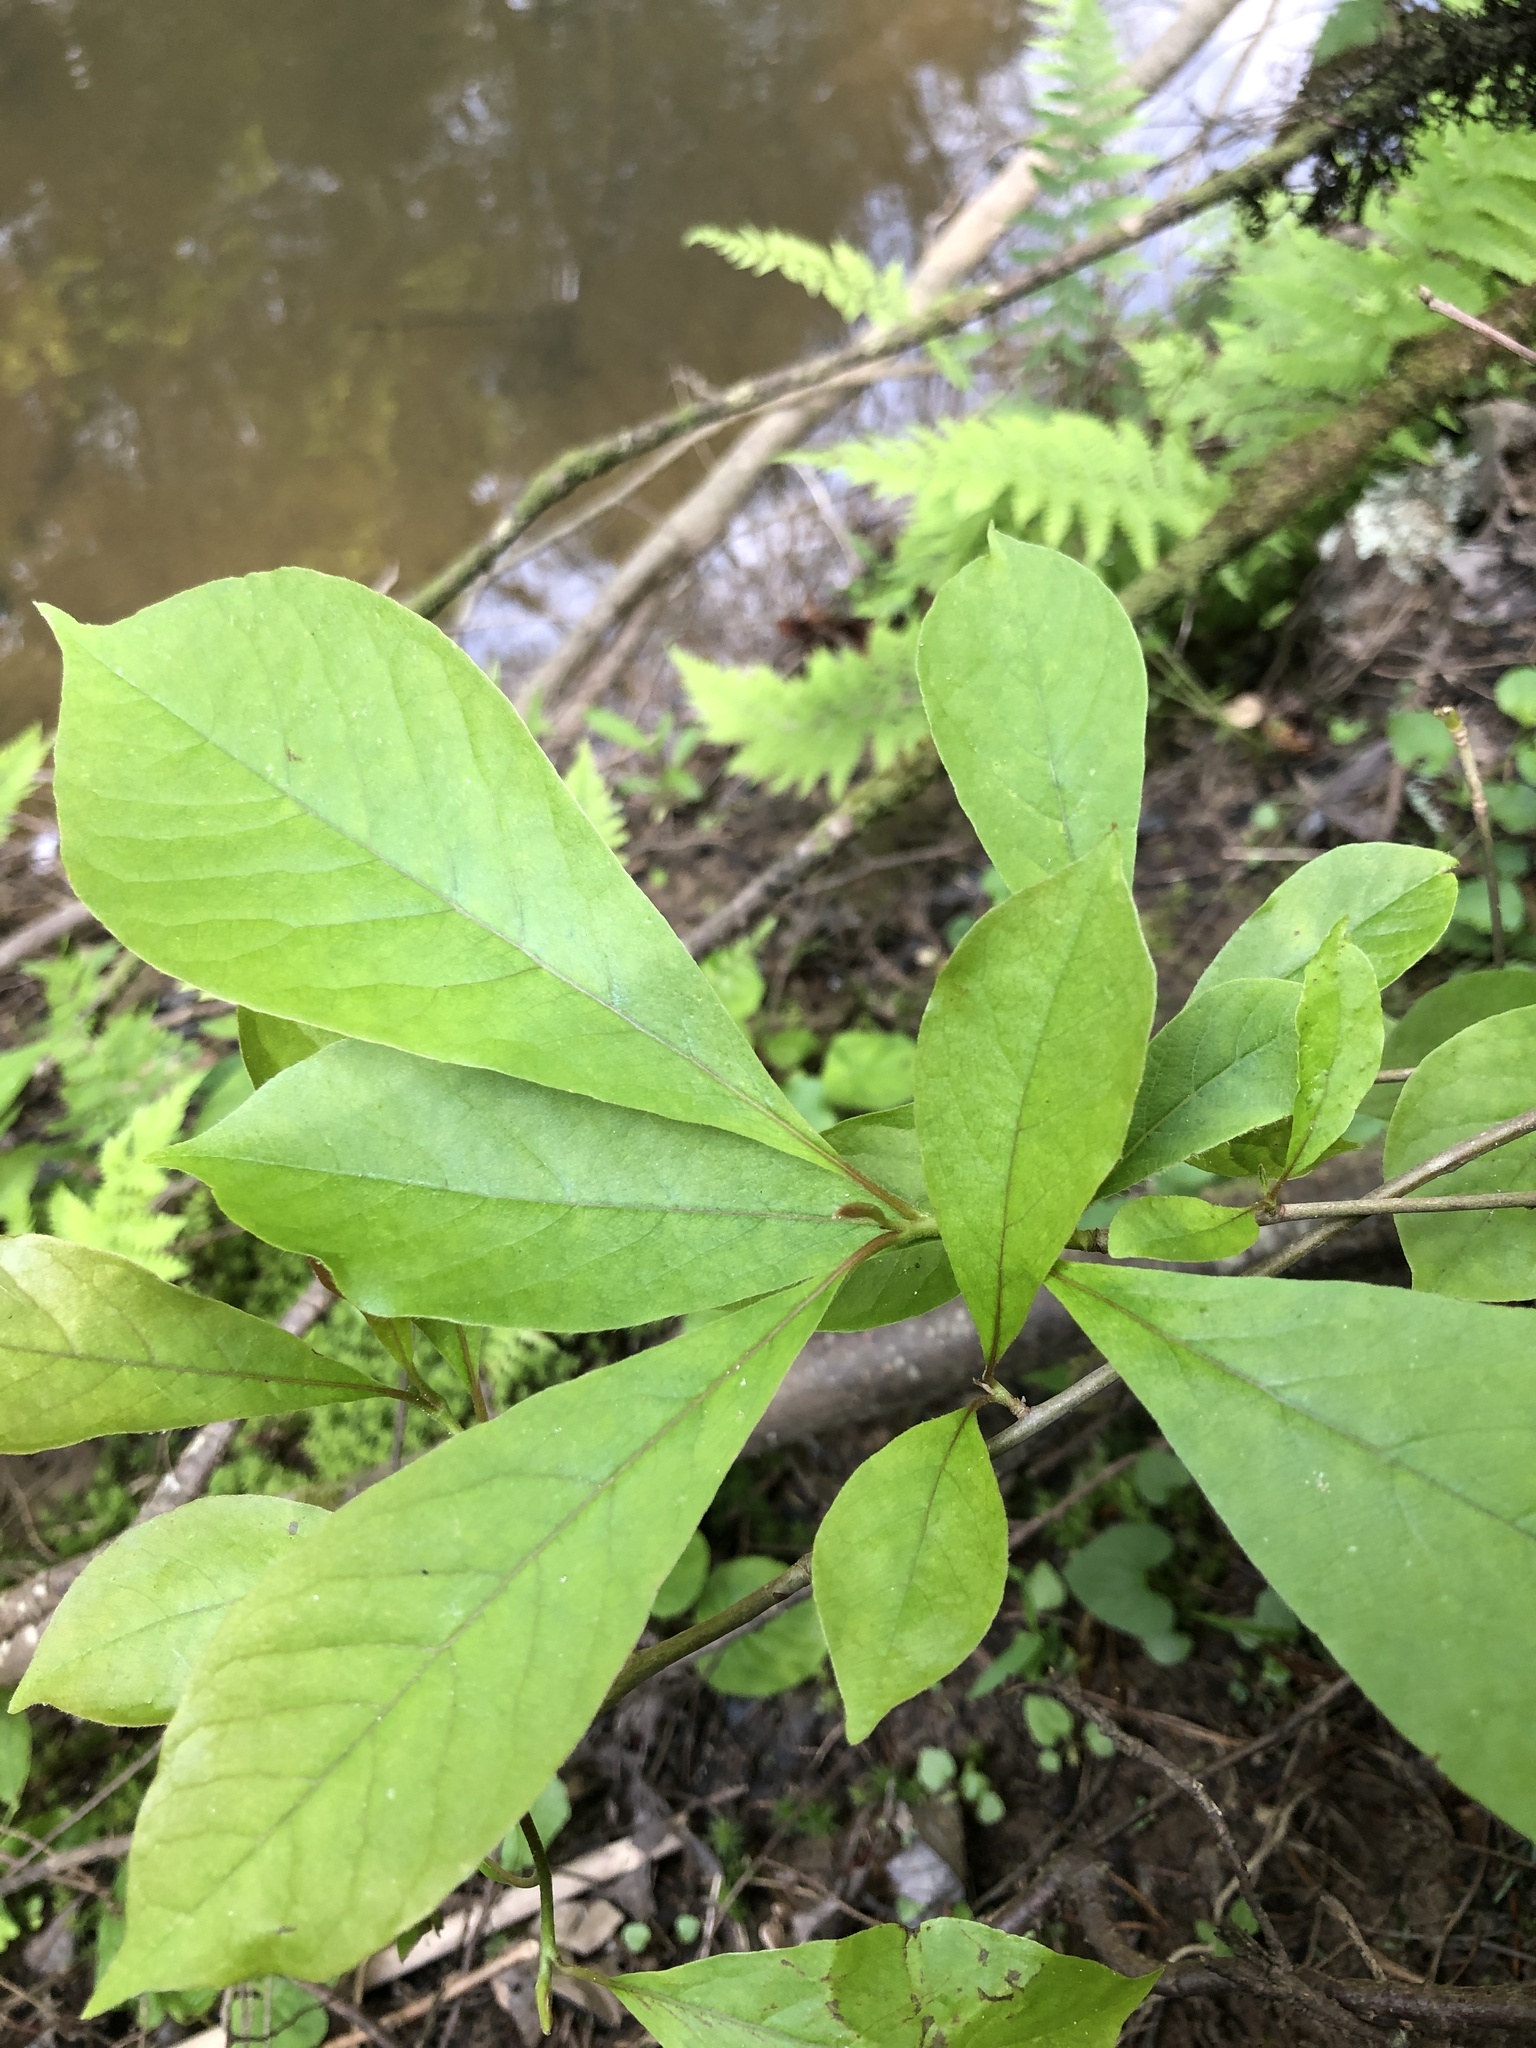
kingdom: Plantae
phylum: Tracheophyta
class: Magnoliopsida
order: Cornales
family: Nyssaceae
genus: Nyssa
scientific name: Nyssa sylvatica
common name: Black tupelo
